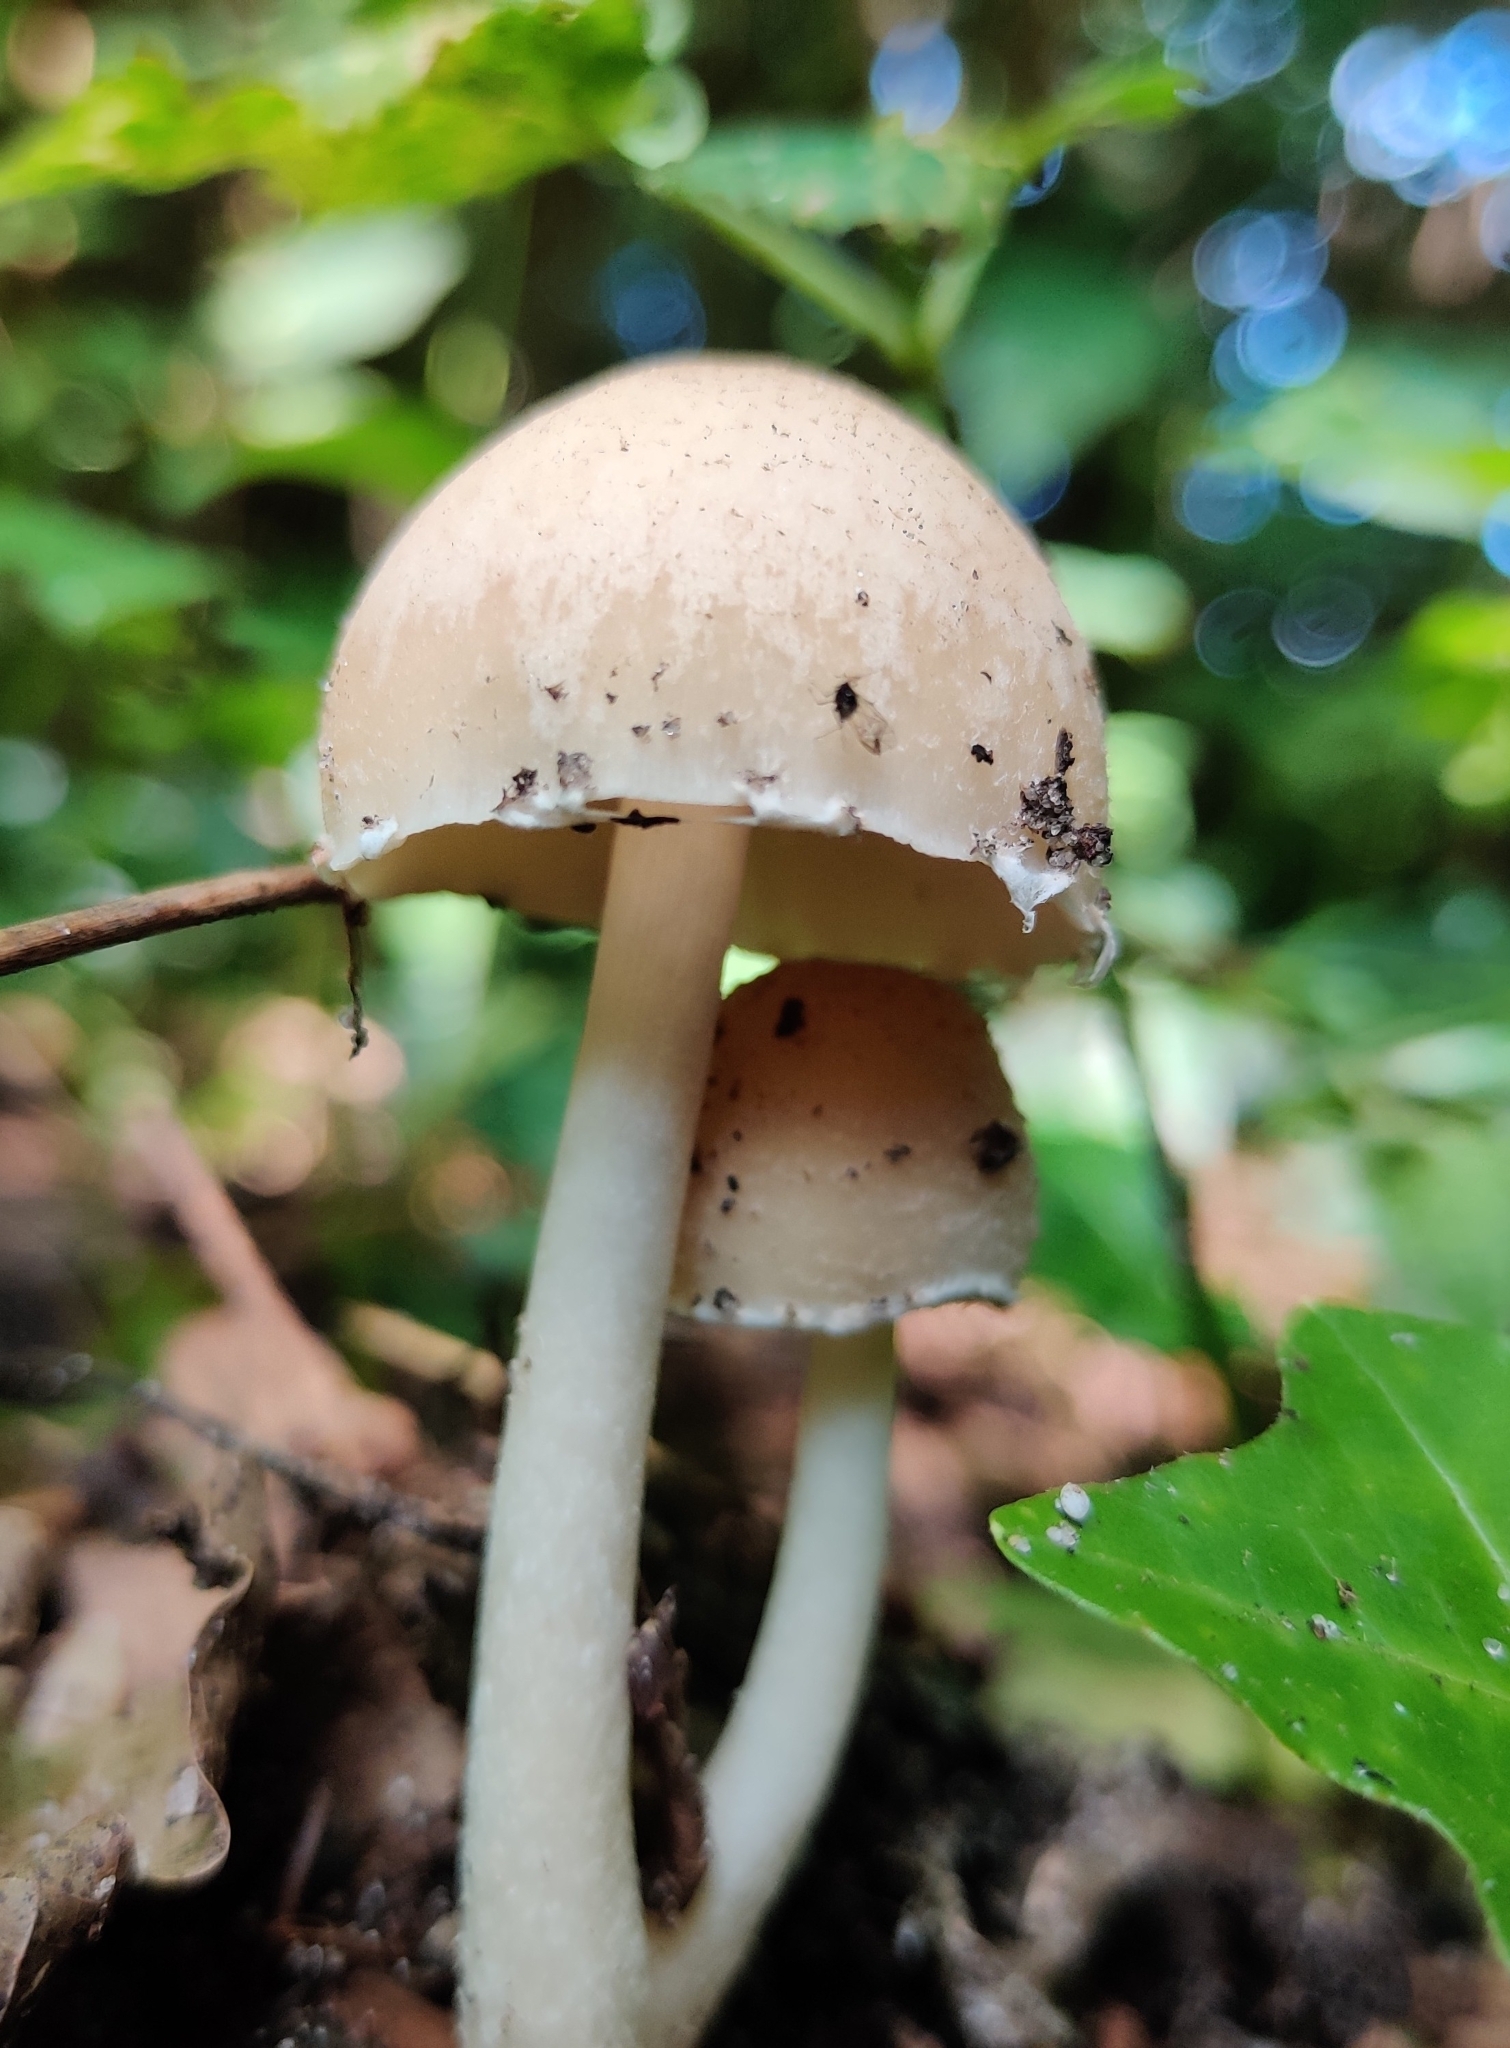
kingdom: Fungi
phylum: Basidiomycota
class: Agaricomycetes
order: Agaricales
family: Psathyrellaceae
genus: Candolleomyces
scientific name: Candolleomyces candolleanus
